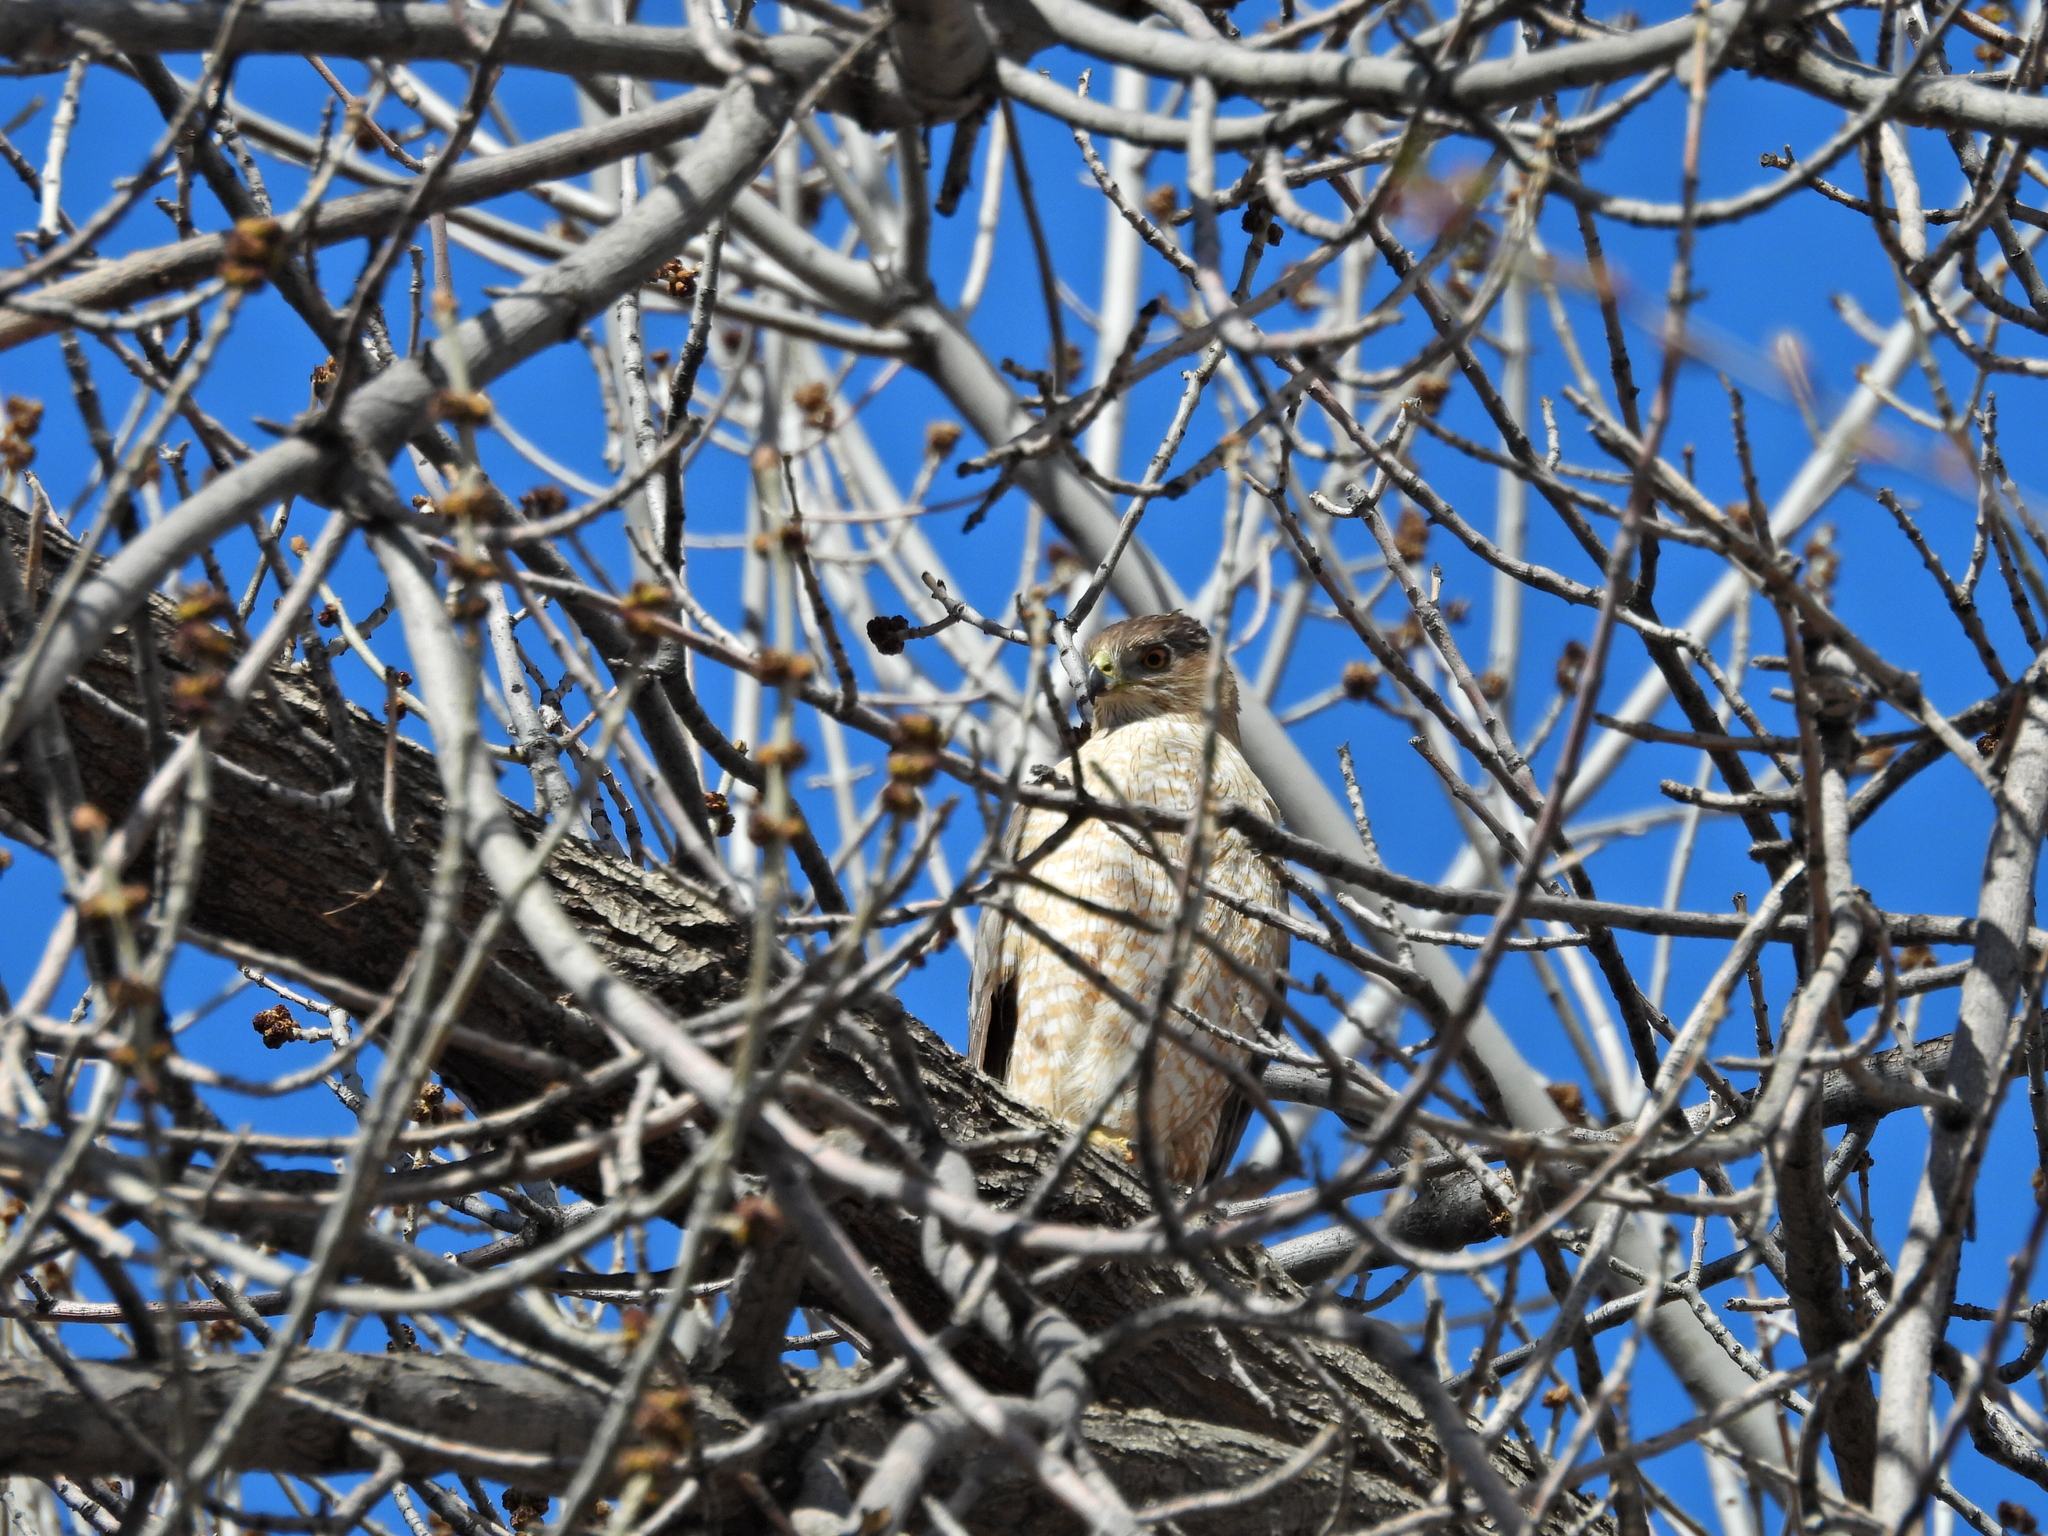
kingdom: Animalia
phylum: Chordata
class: Aves
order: Accipitriformes
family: Accipitridae
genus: Accipiter
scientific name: Accipiter cooperii
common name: Cooper's hawk
